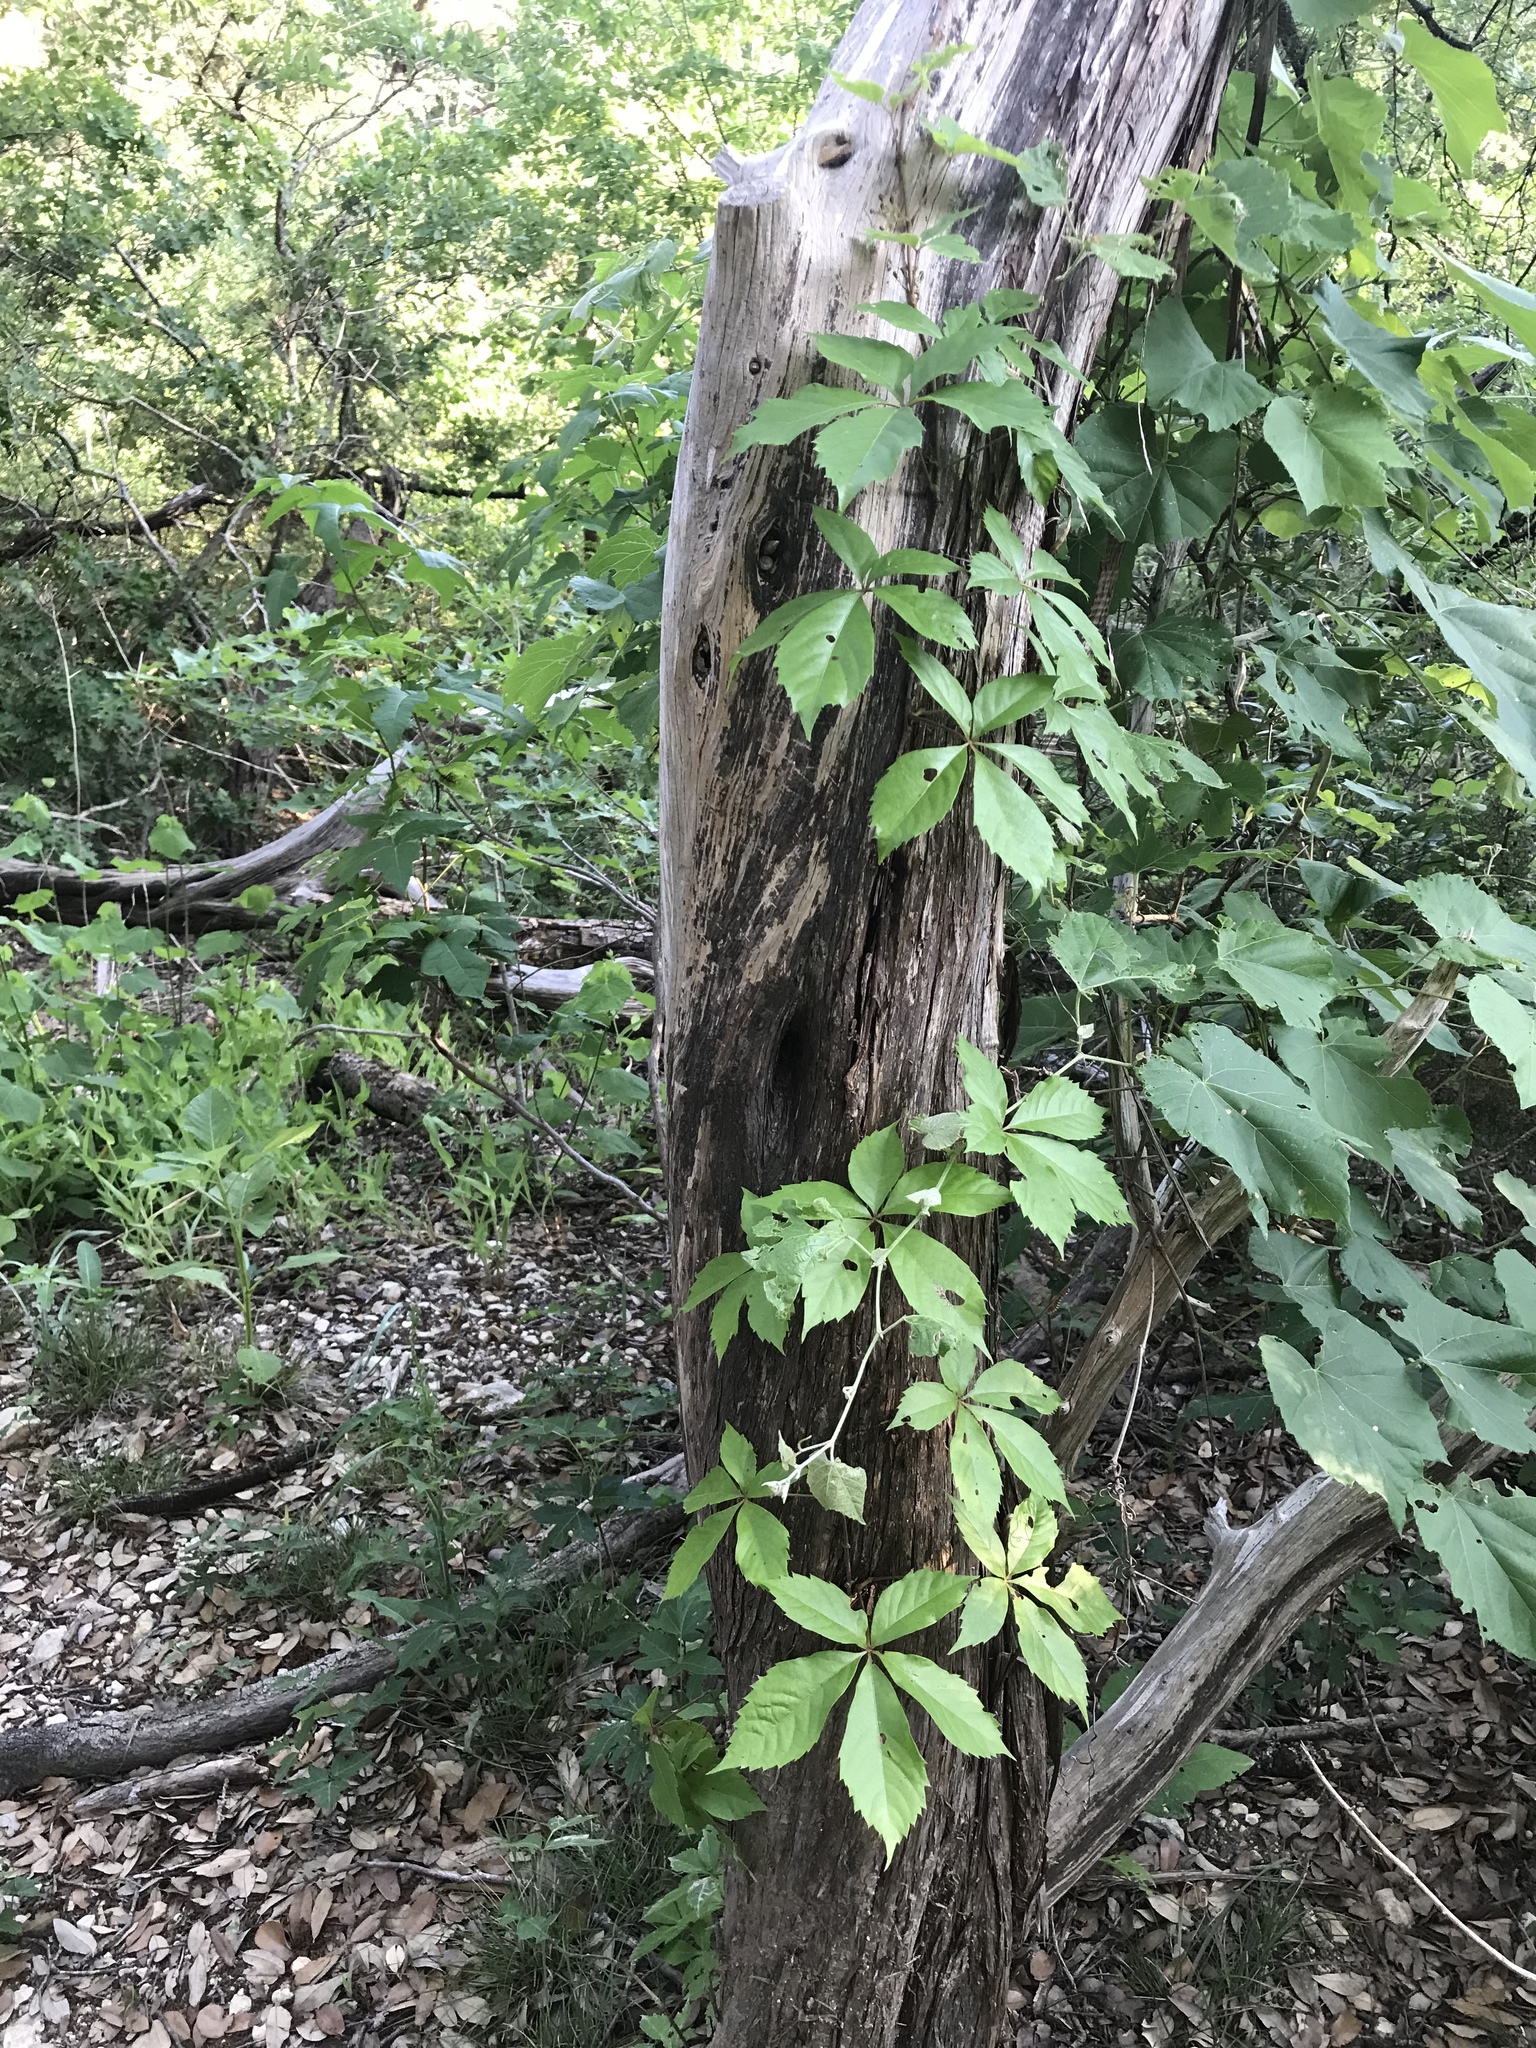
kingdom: Plantae
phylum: Tracheophyta
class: Magnoliopsida
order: Vitales
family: Vitaceae
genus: Parthenocissus
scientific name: Parthenocissus quinquefolia
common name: Virginia-creeper
